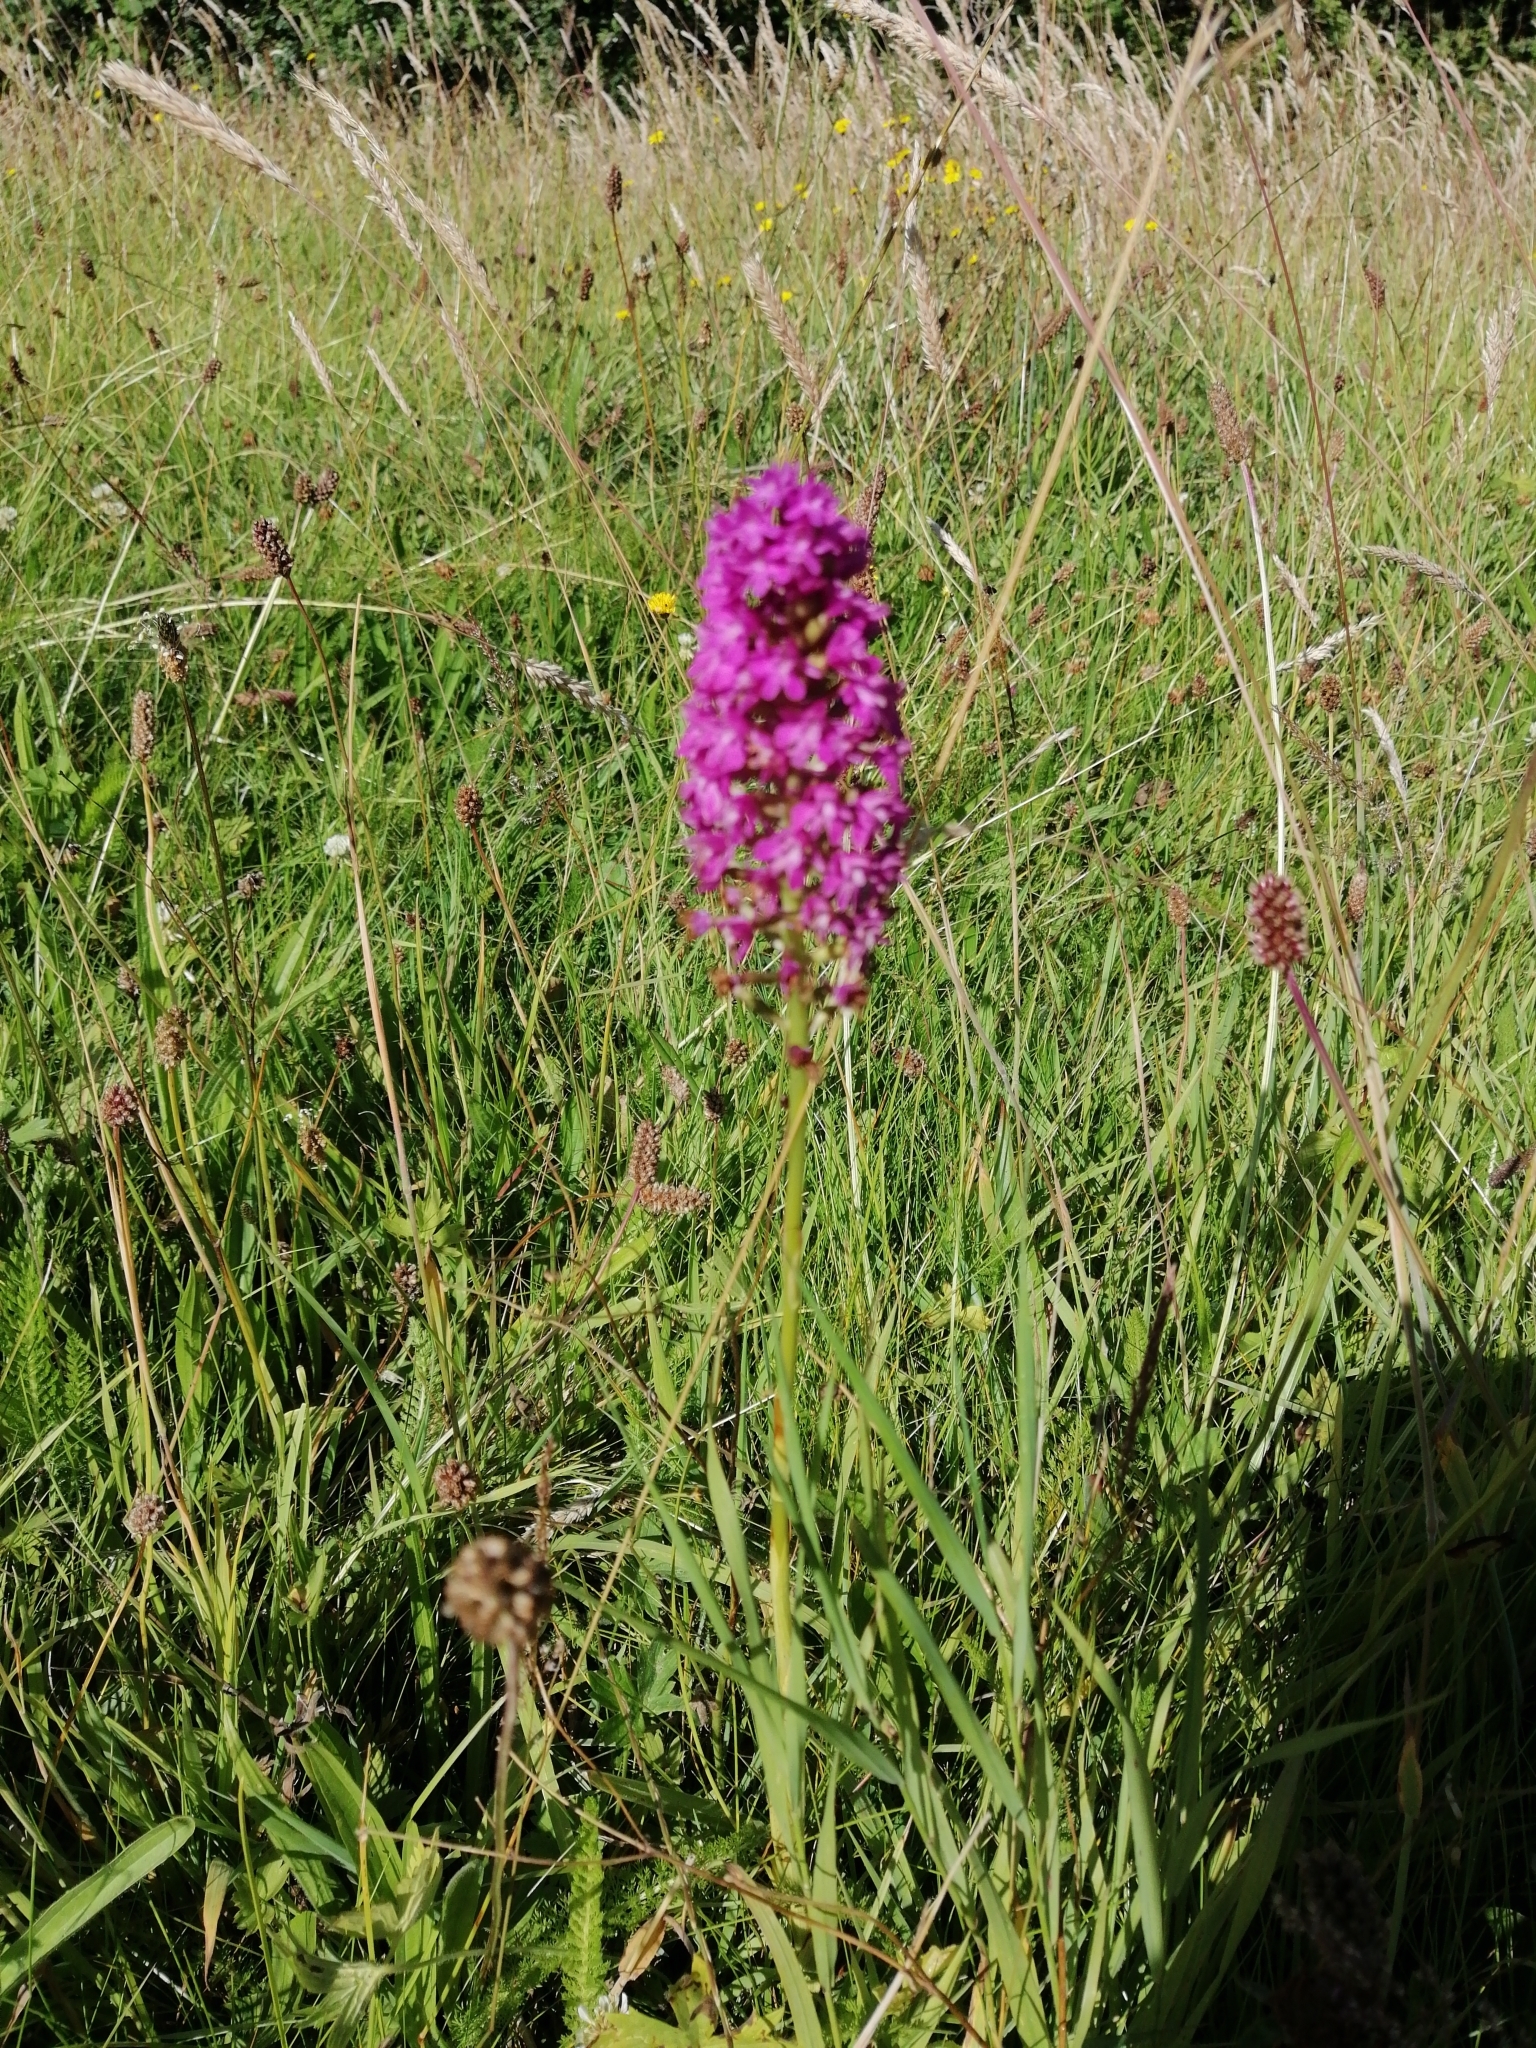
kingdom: Plantae
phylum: Tracheophyta
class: Liliopsida
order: Asparagales
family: Orchidaceae
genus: Anacamptis
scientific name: Anacamptis pyramidalis
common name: Pyramidal orchid
